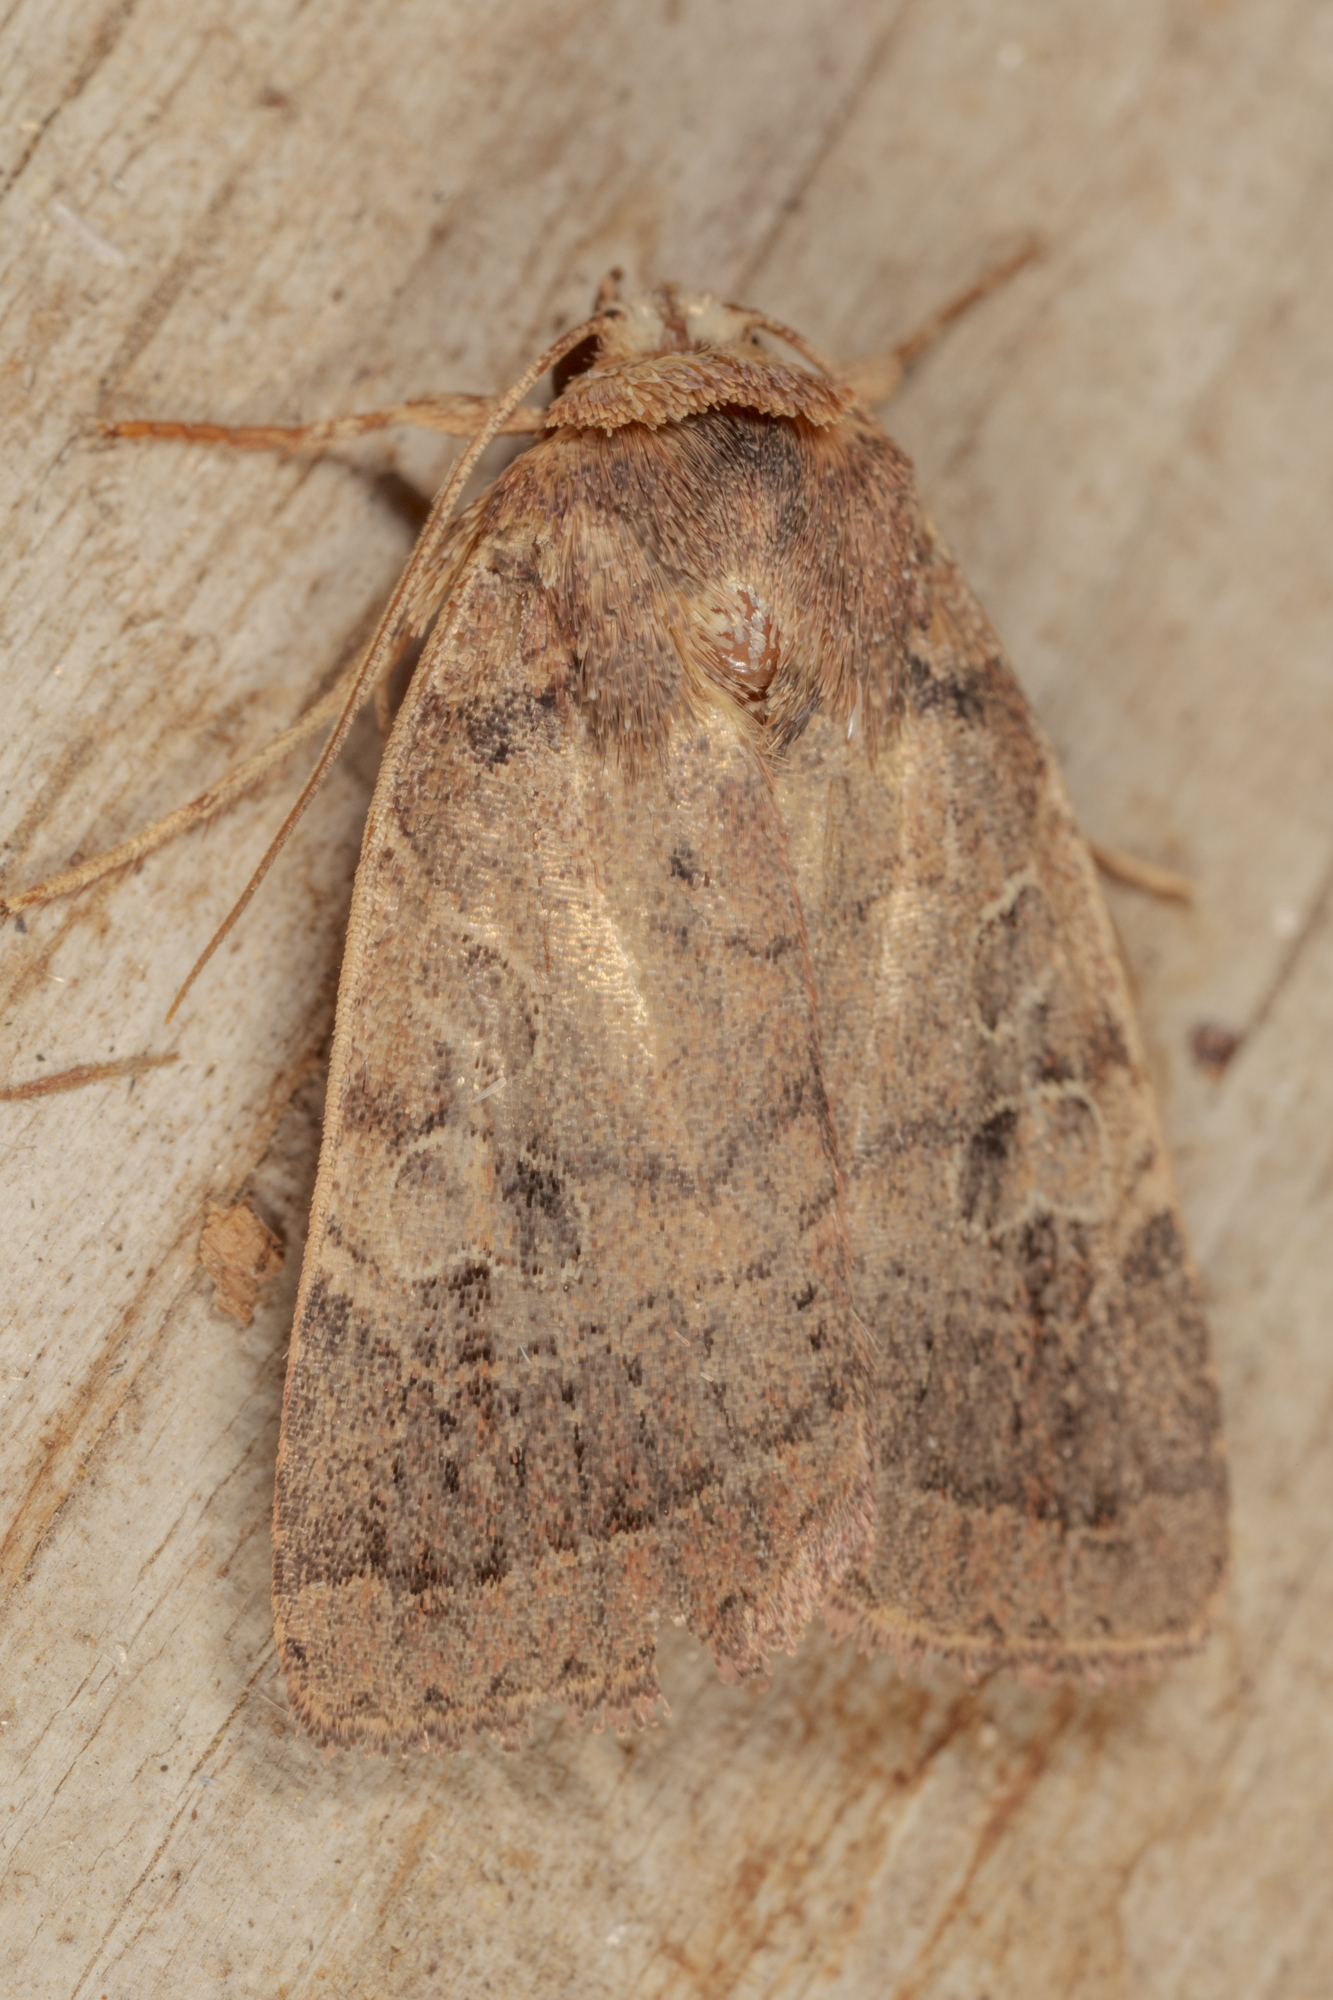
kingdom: Animalia
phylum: Arthropoda
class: Insecta
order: Lepidoptera
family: Noctuidae
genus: Orthodes
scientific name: Orthodes furtiva
